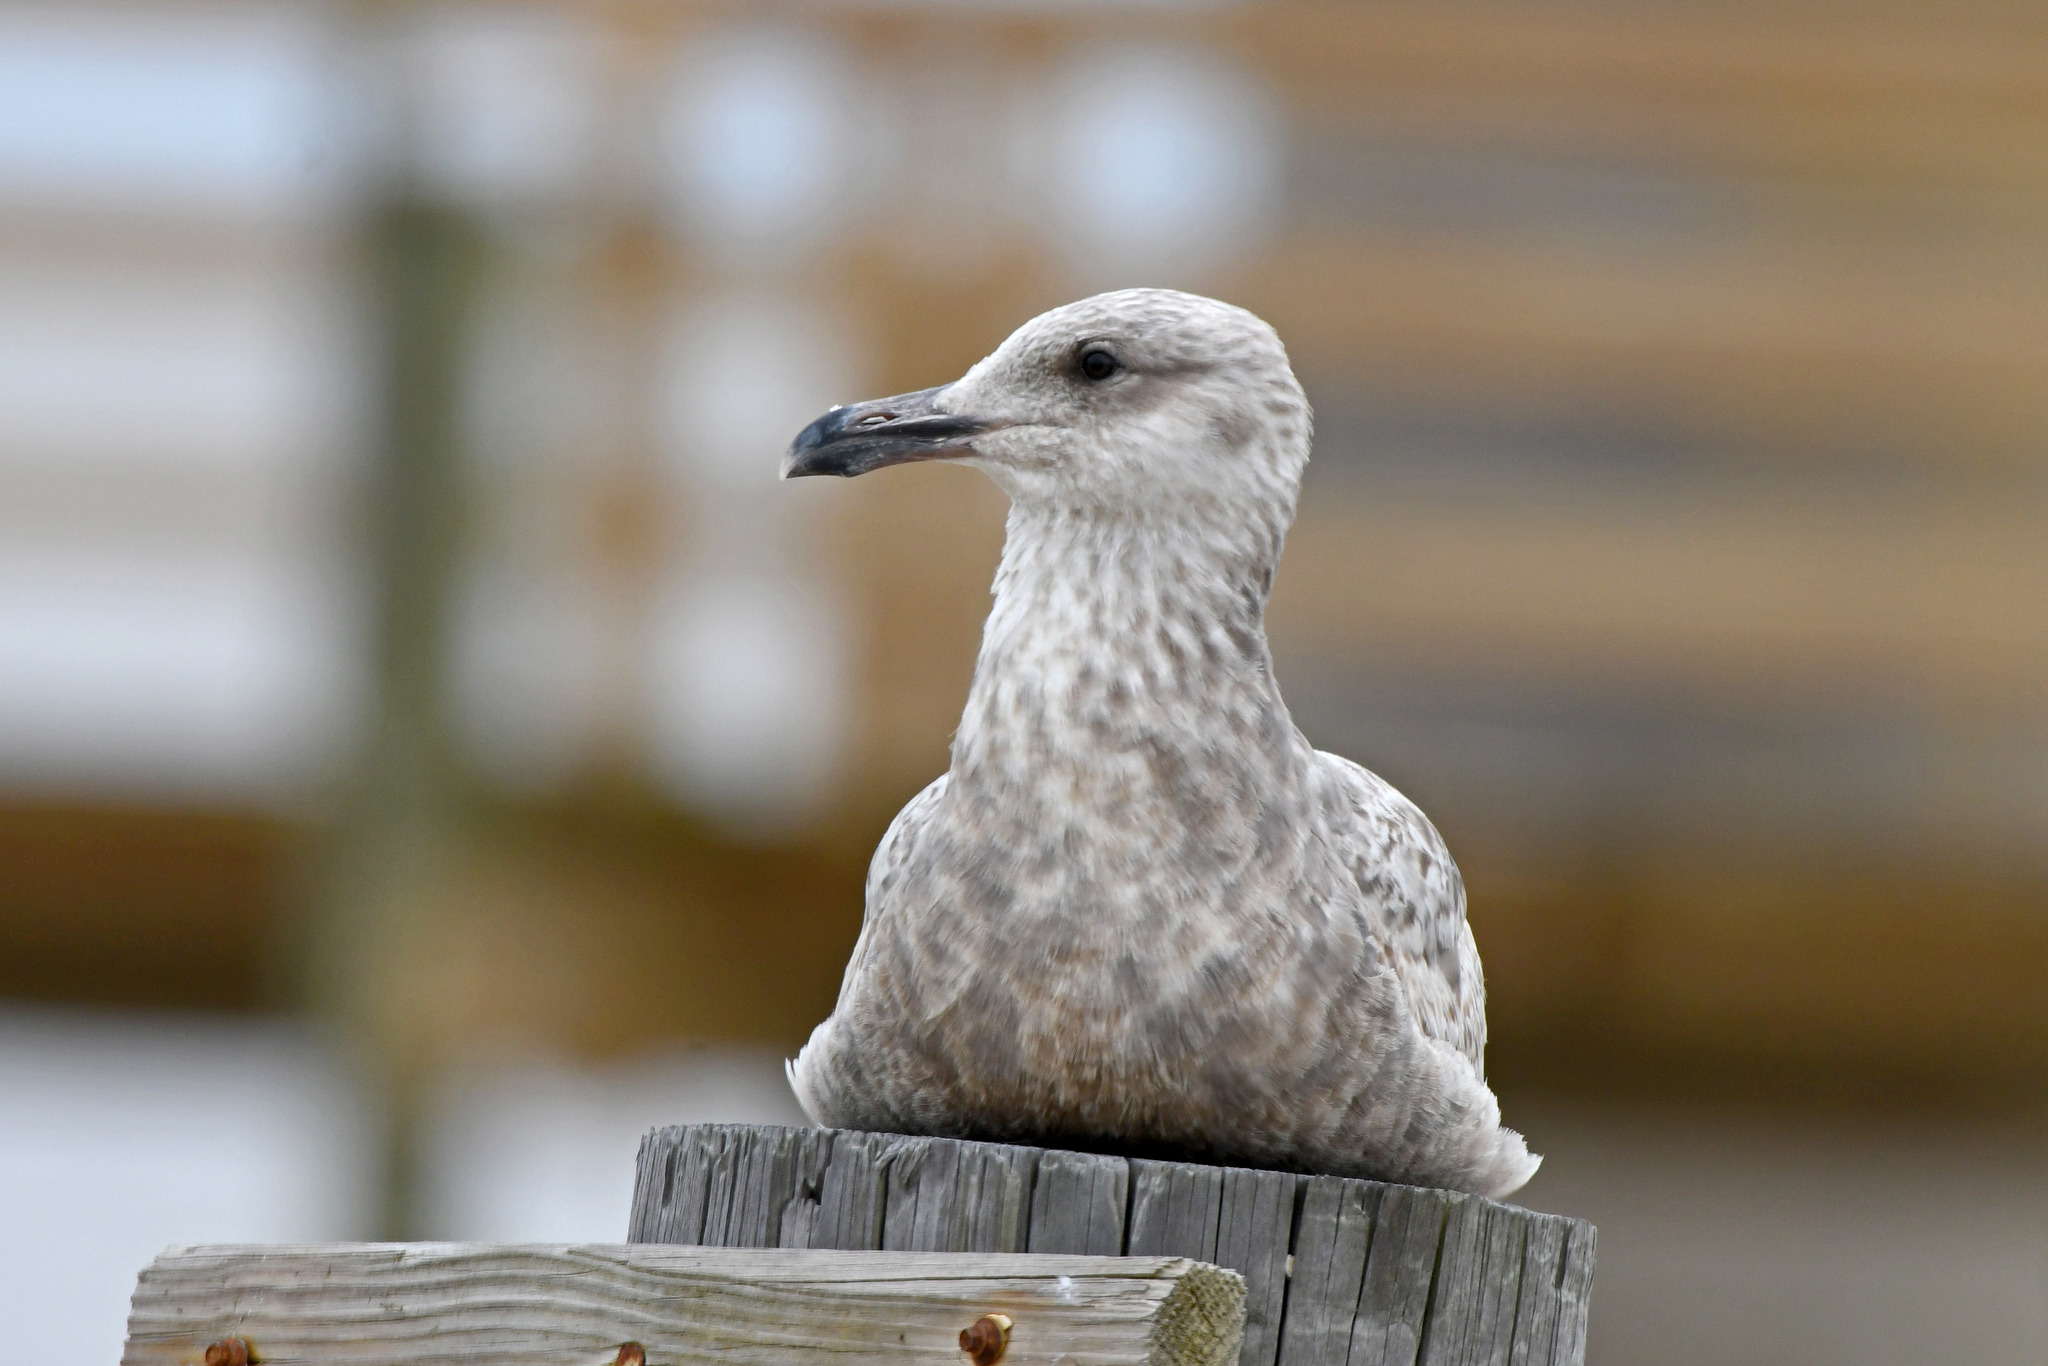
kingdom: Animalia
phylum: Chordata
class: Aves
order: Charadriiformes
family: Laridae
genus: Larus
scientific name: Larus argentatus
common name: Herring gull
